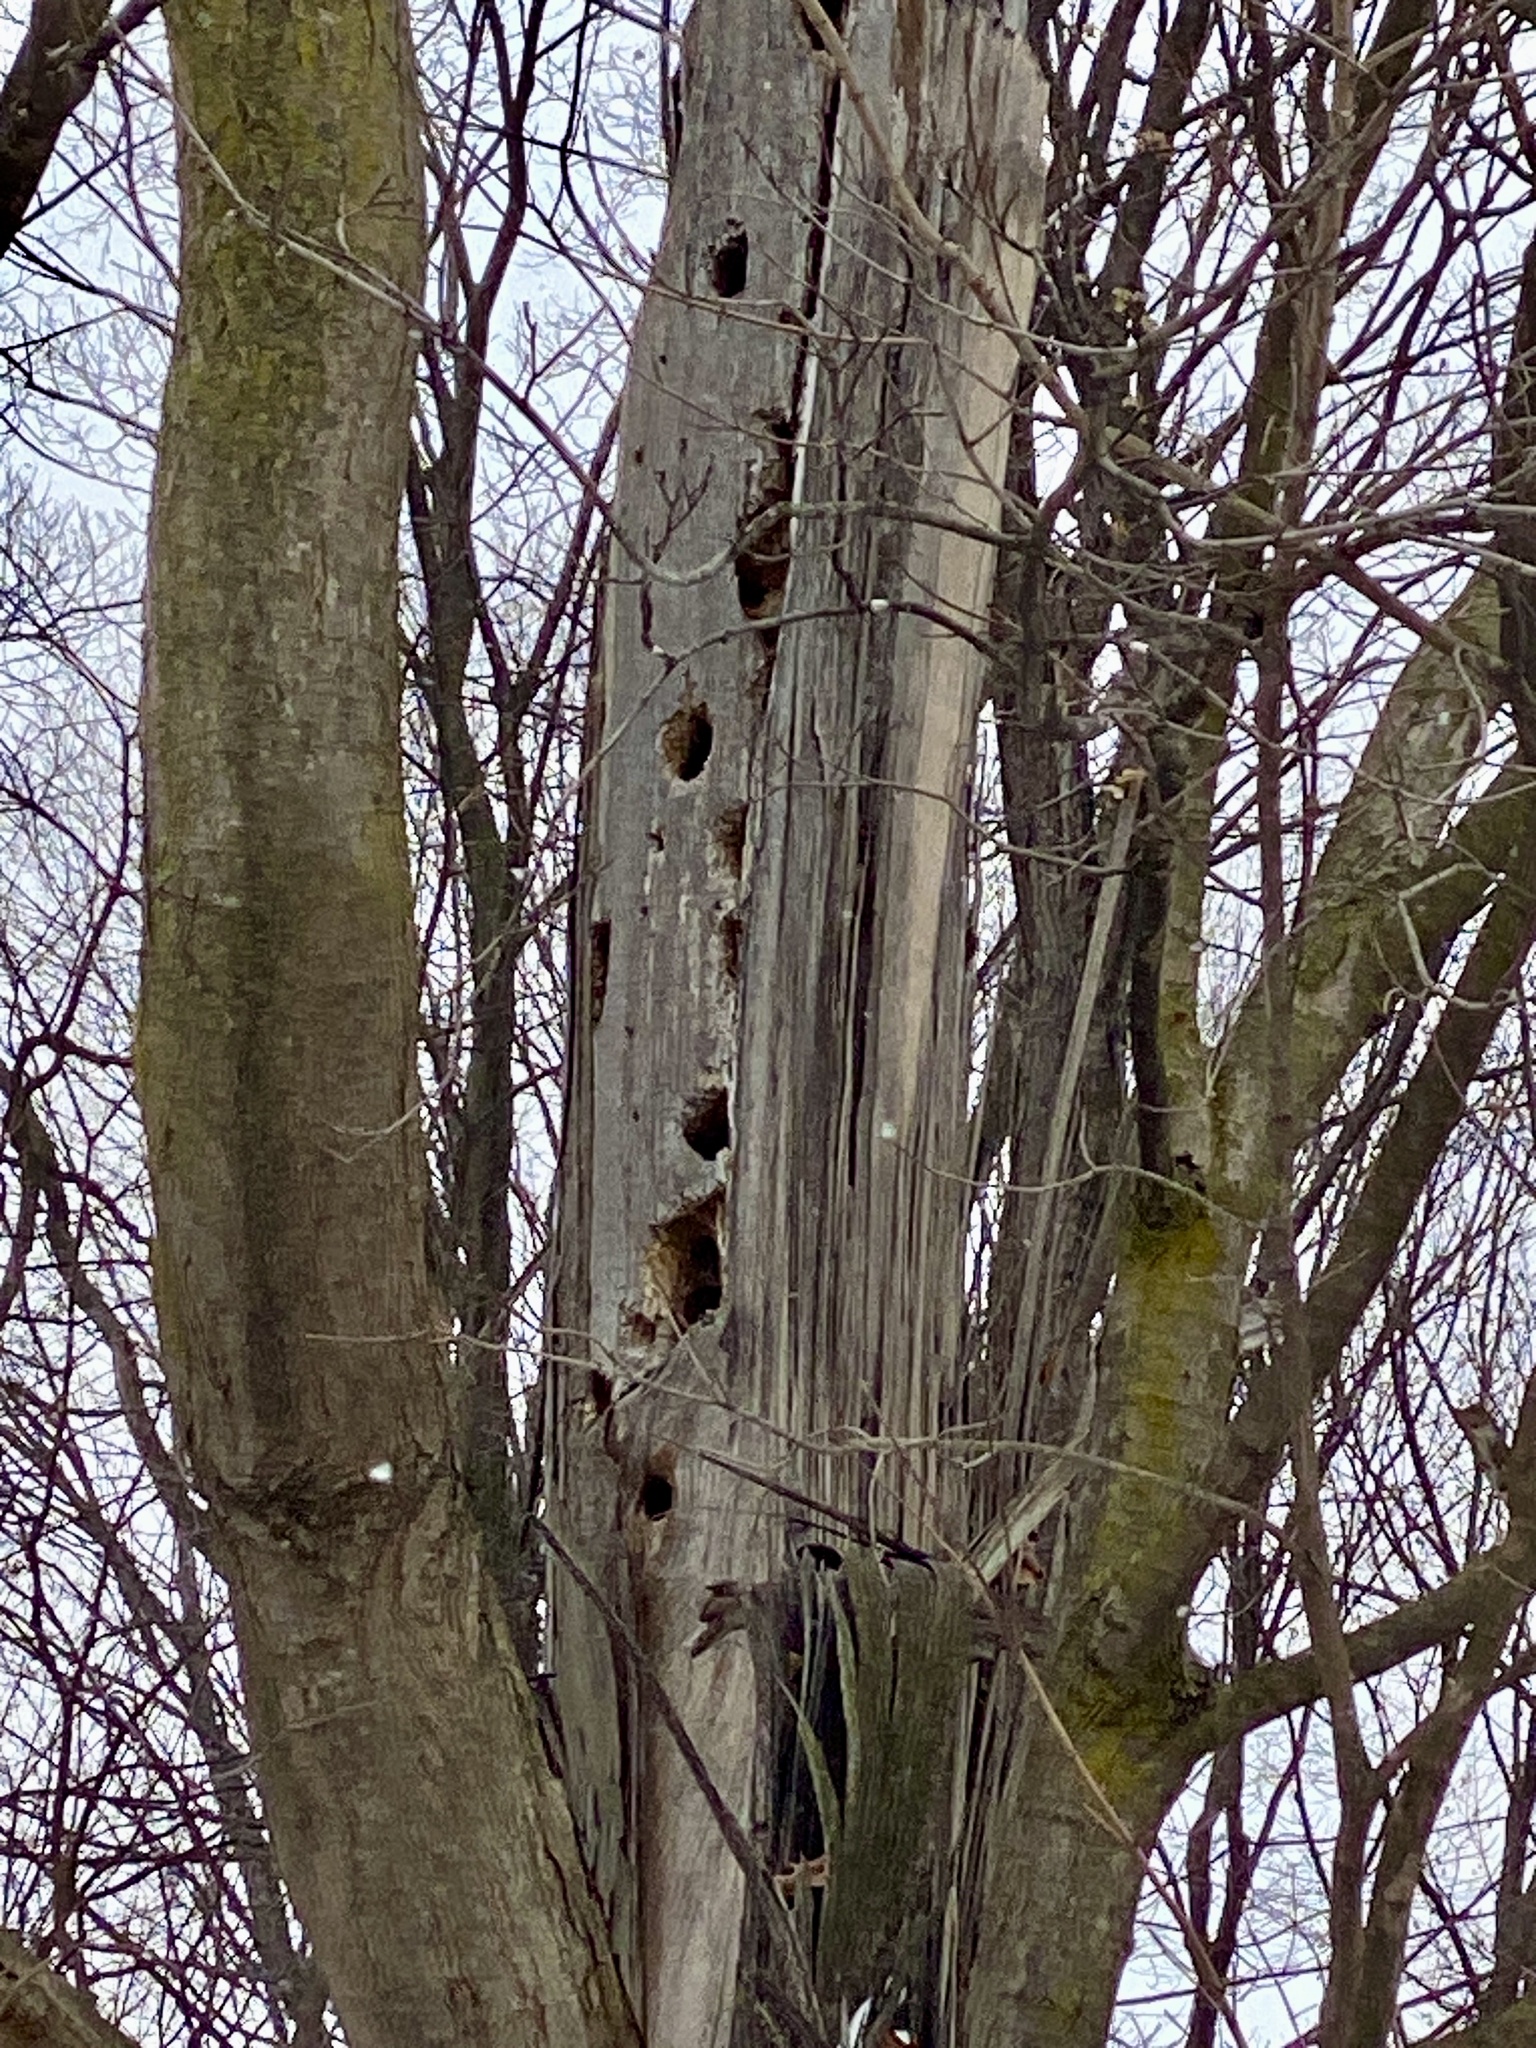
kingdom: Animalia
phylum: Chordata
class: Aves
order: Piciformes
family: Picidae
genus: Dryocopus
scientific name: Dryocopus pileatus
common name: Pileated woodpecker
